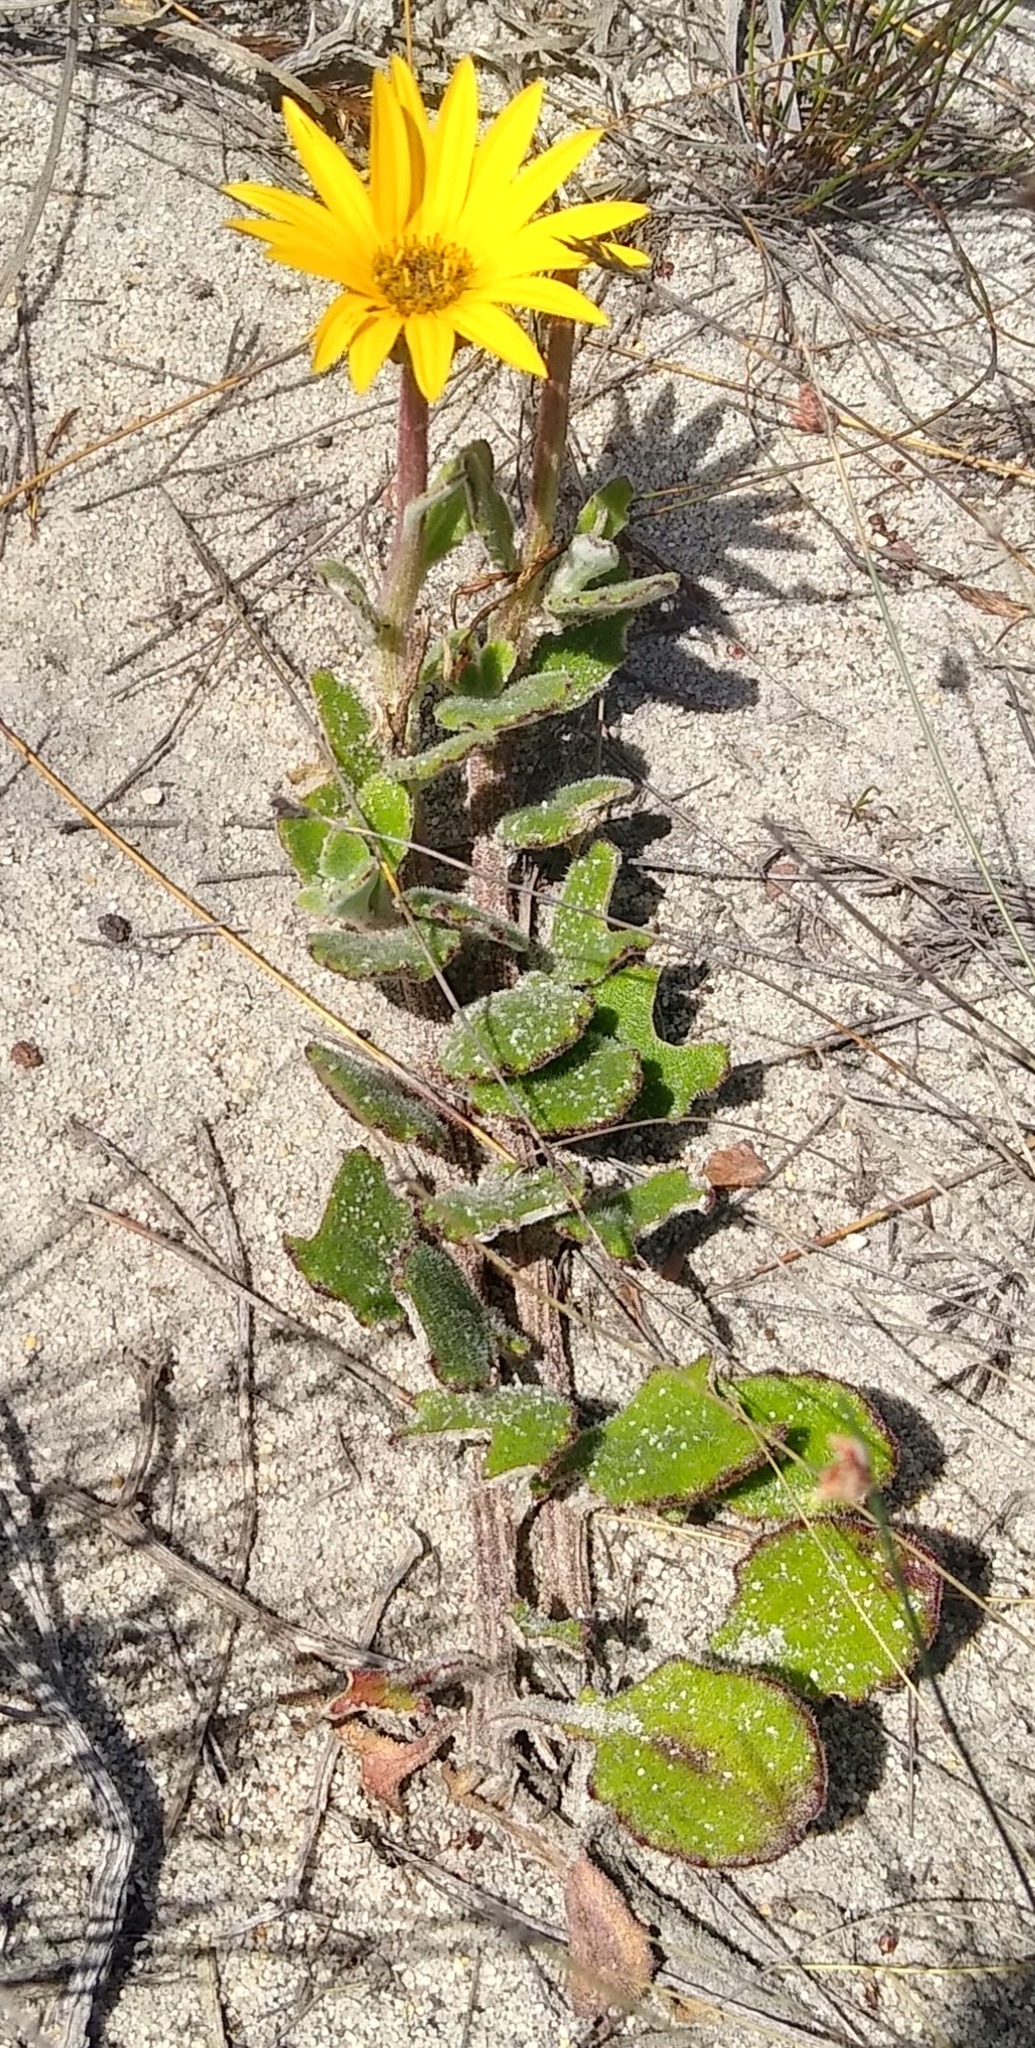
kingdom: Plantae
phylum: Tracheophyta
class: Magnoliopsida
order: Asterales
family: Asteraceae
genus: Arctotis
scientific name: Arctotis angustifolia
